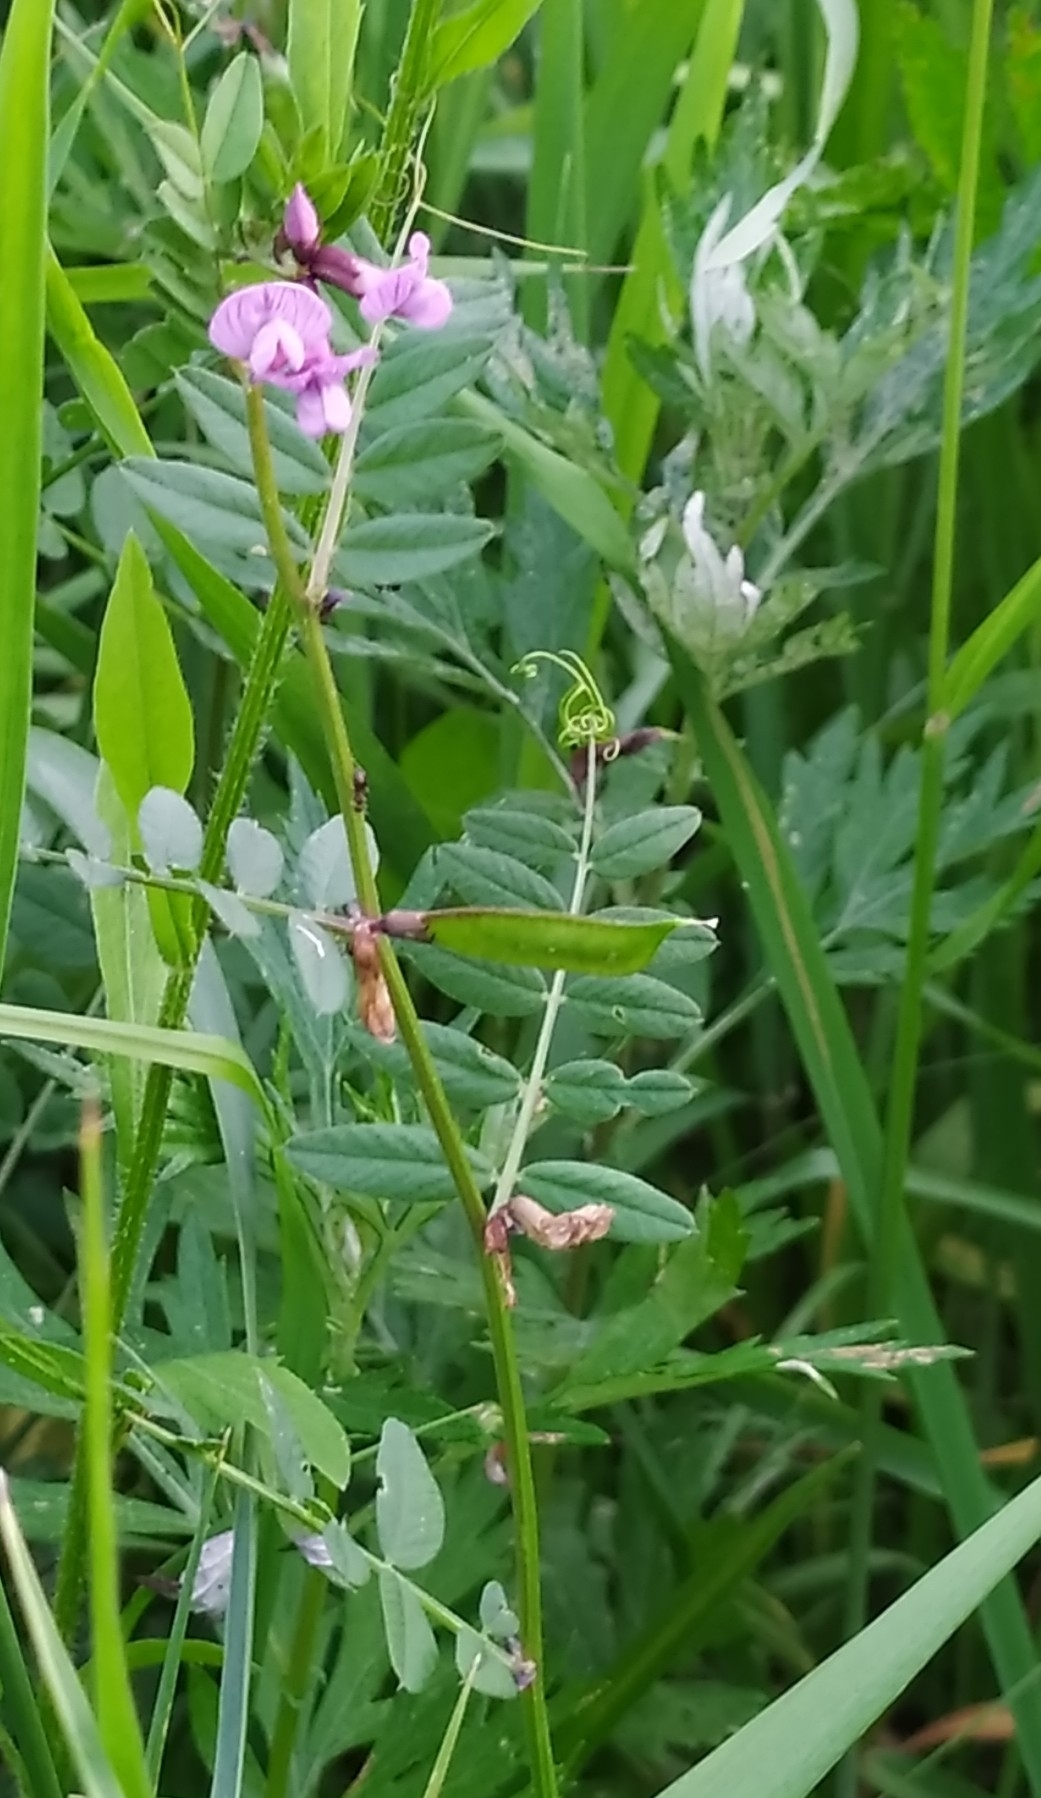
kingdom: Plantae
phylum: Tracheophyta
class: Magnoliopsida
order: Fabales
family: Fabaceae
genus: Vicia
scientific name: Vicia sepium
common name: Bush vetch
